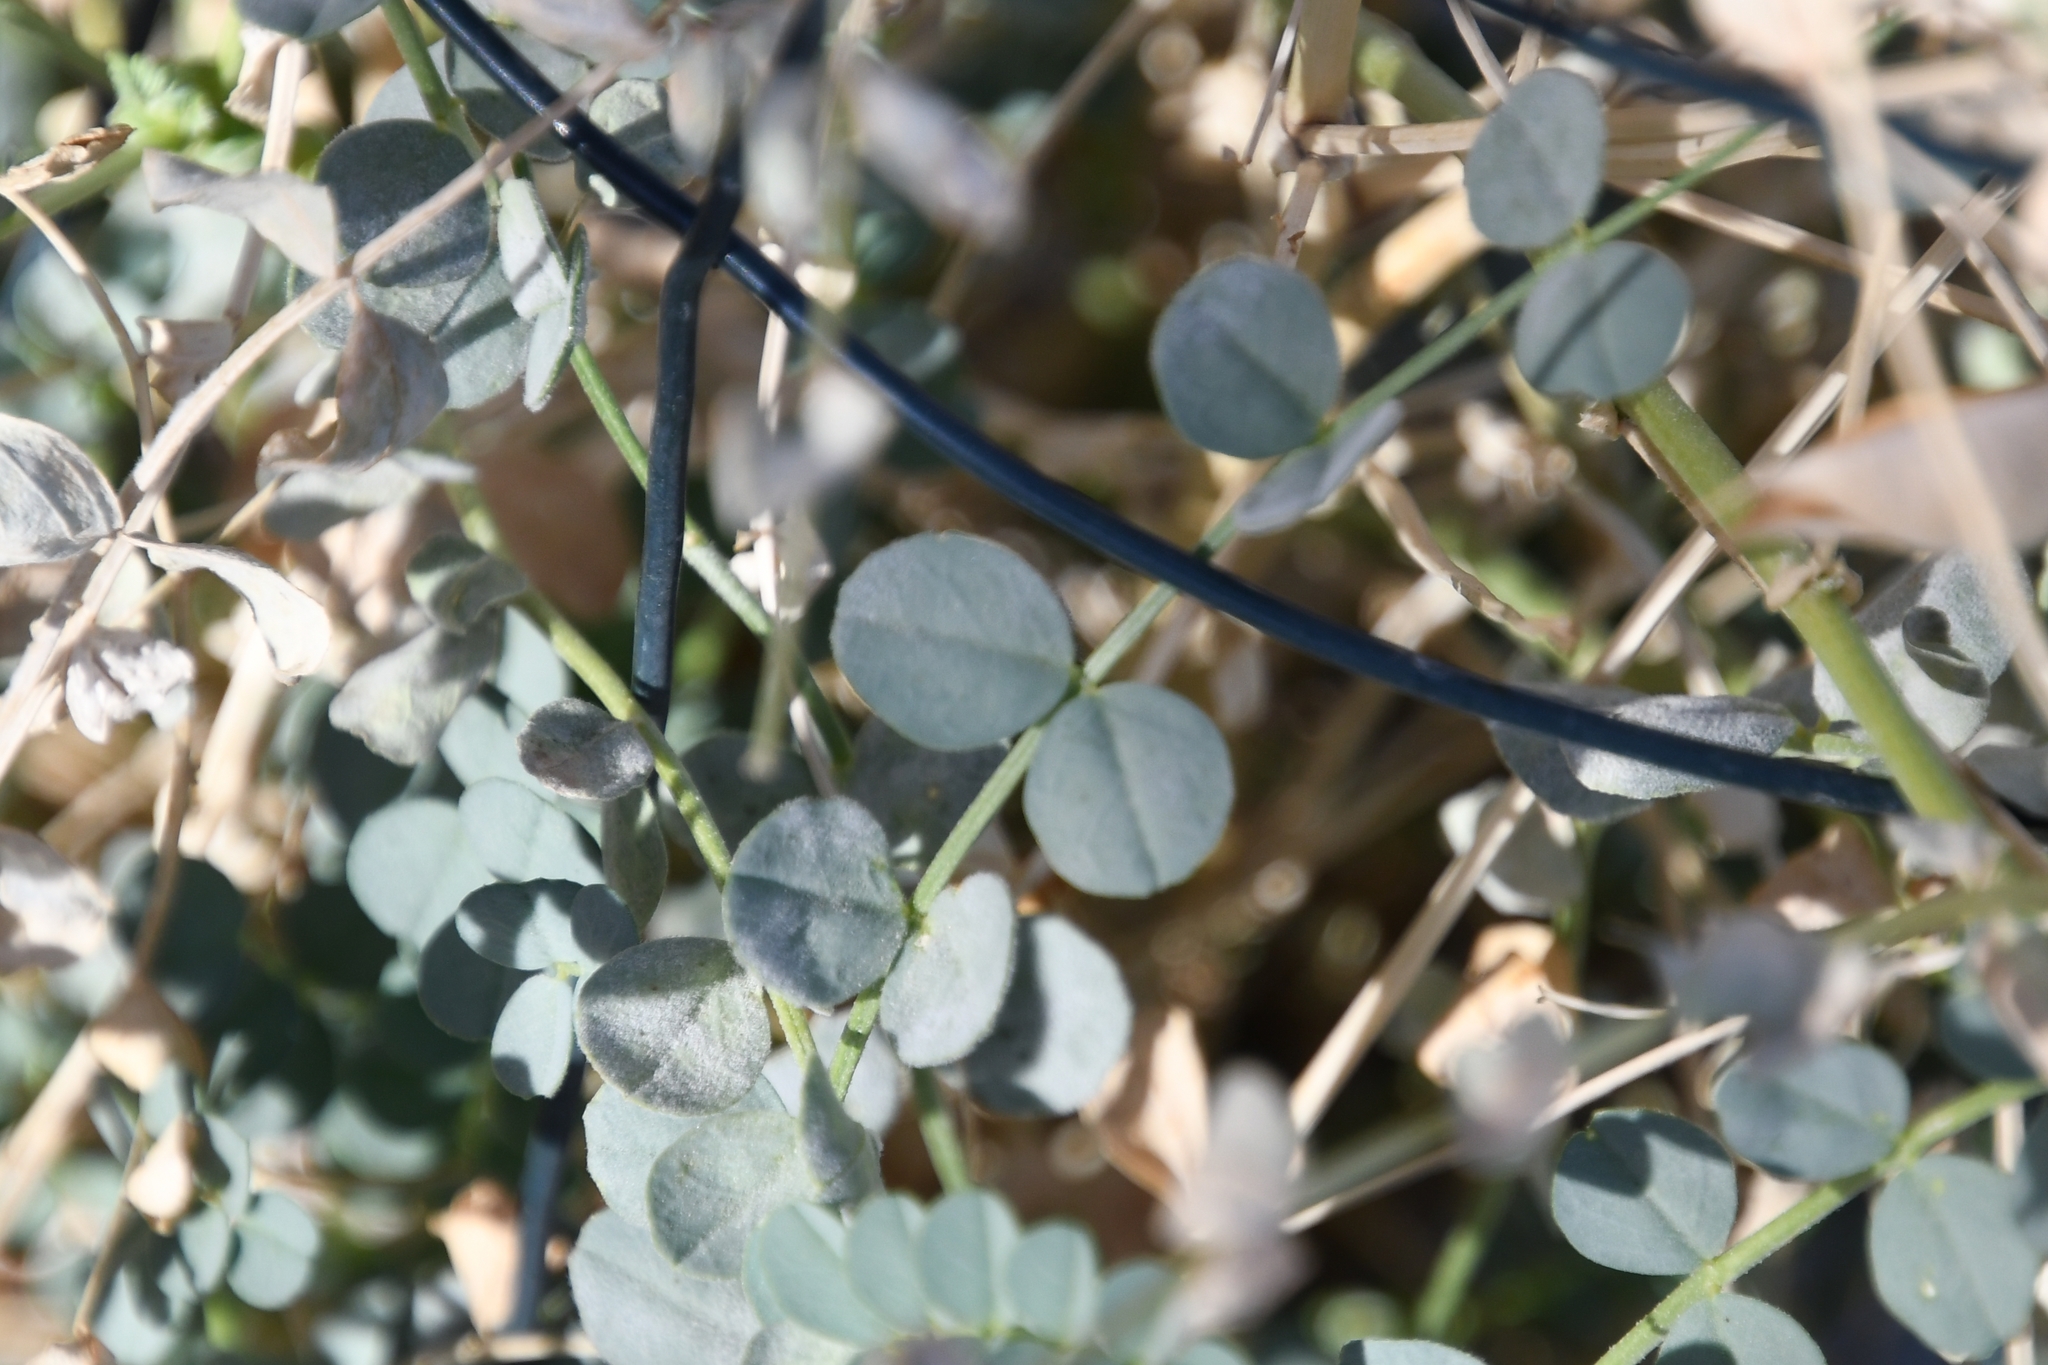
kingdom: Plantae
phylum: Tracheophyta
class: Magnoliopsida
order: Fabales
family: Fabaceae
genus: Astragalus
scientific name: Astragalus beckwithii
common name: Beckwith's milk-vetch
